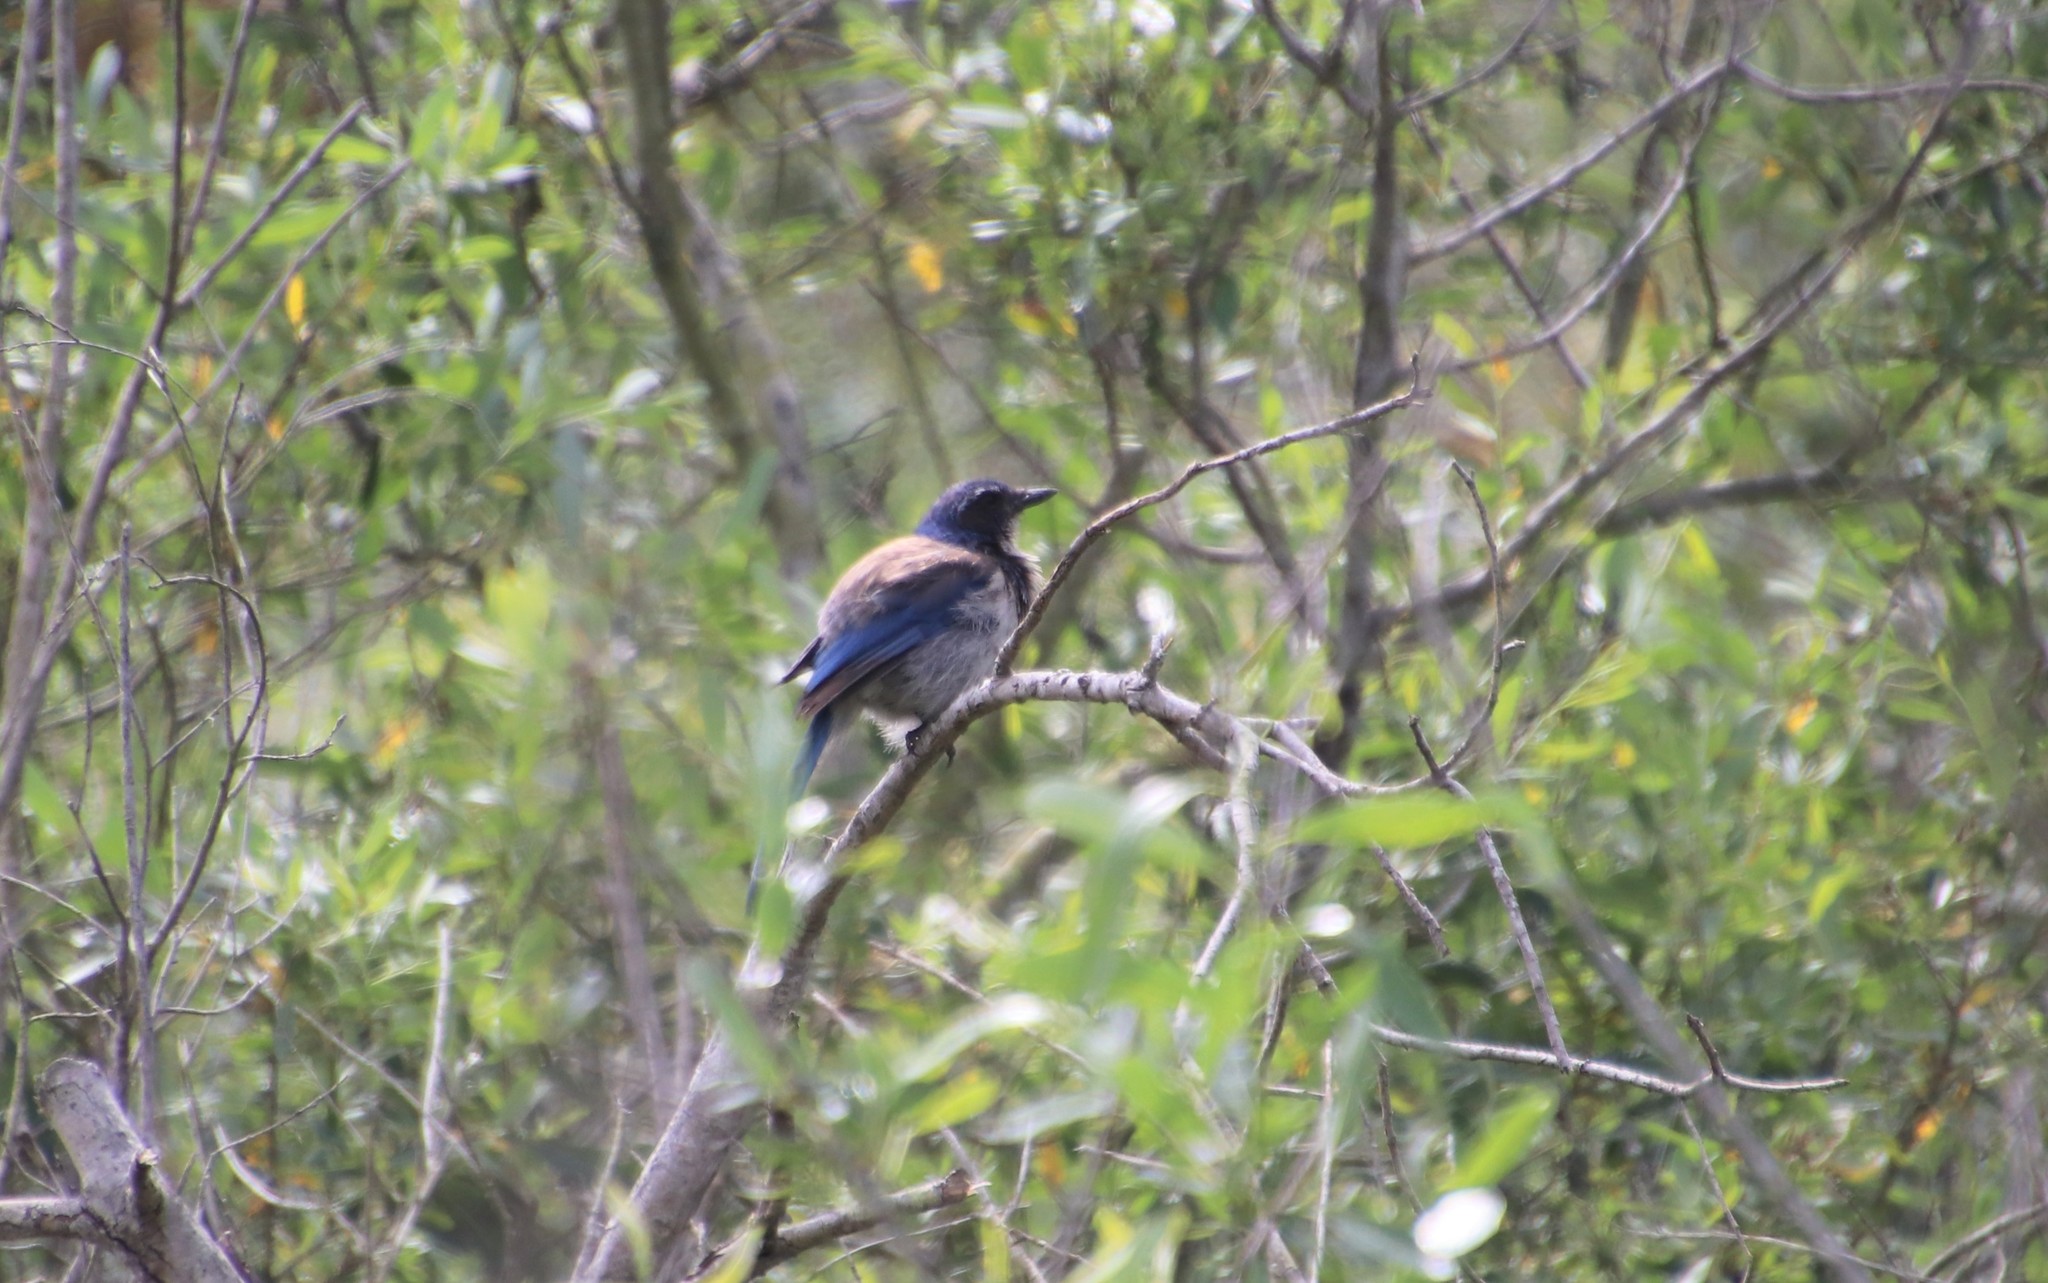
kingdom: Animalia
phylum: Chordata
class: Aves
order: Passeriformes
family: Corvidae
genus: Aphelocoma
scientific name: Aphelocoma californica
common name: California scrub-jay
